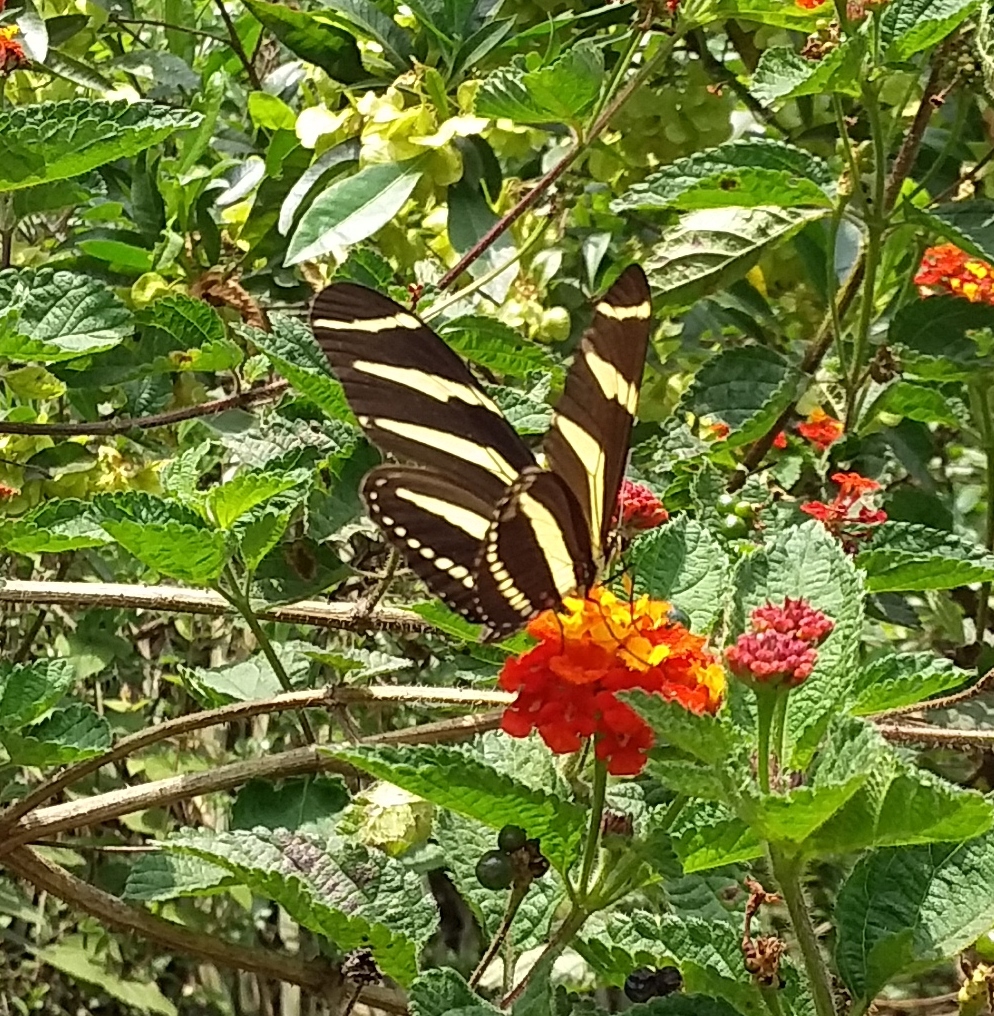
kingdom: Animalia
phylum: Arthropoda
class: Insecta
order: Lepidoptera
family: Nymphalidae
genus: Heliconius
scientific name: Heliconius charithonia
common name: Zebra long wing
